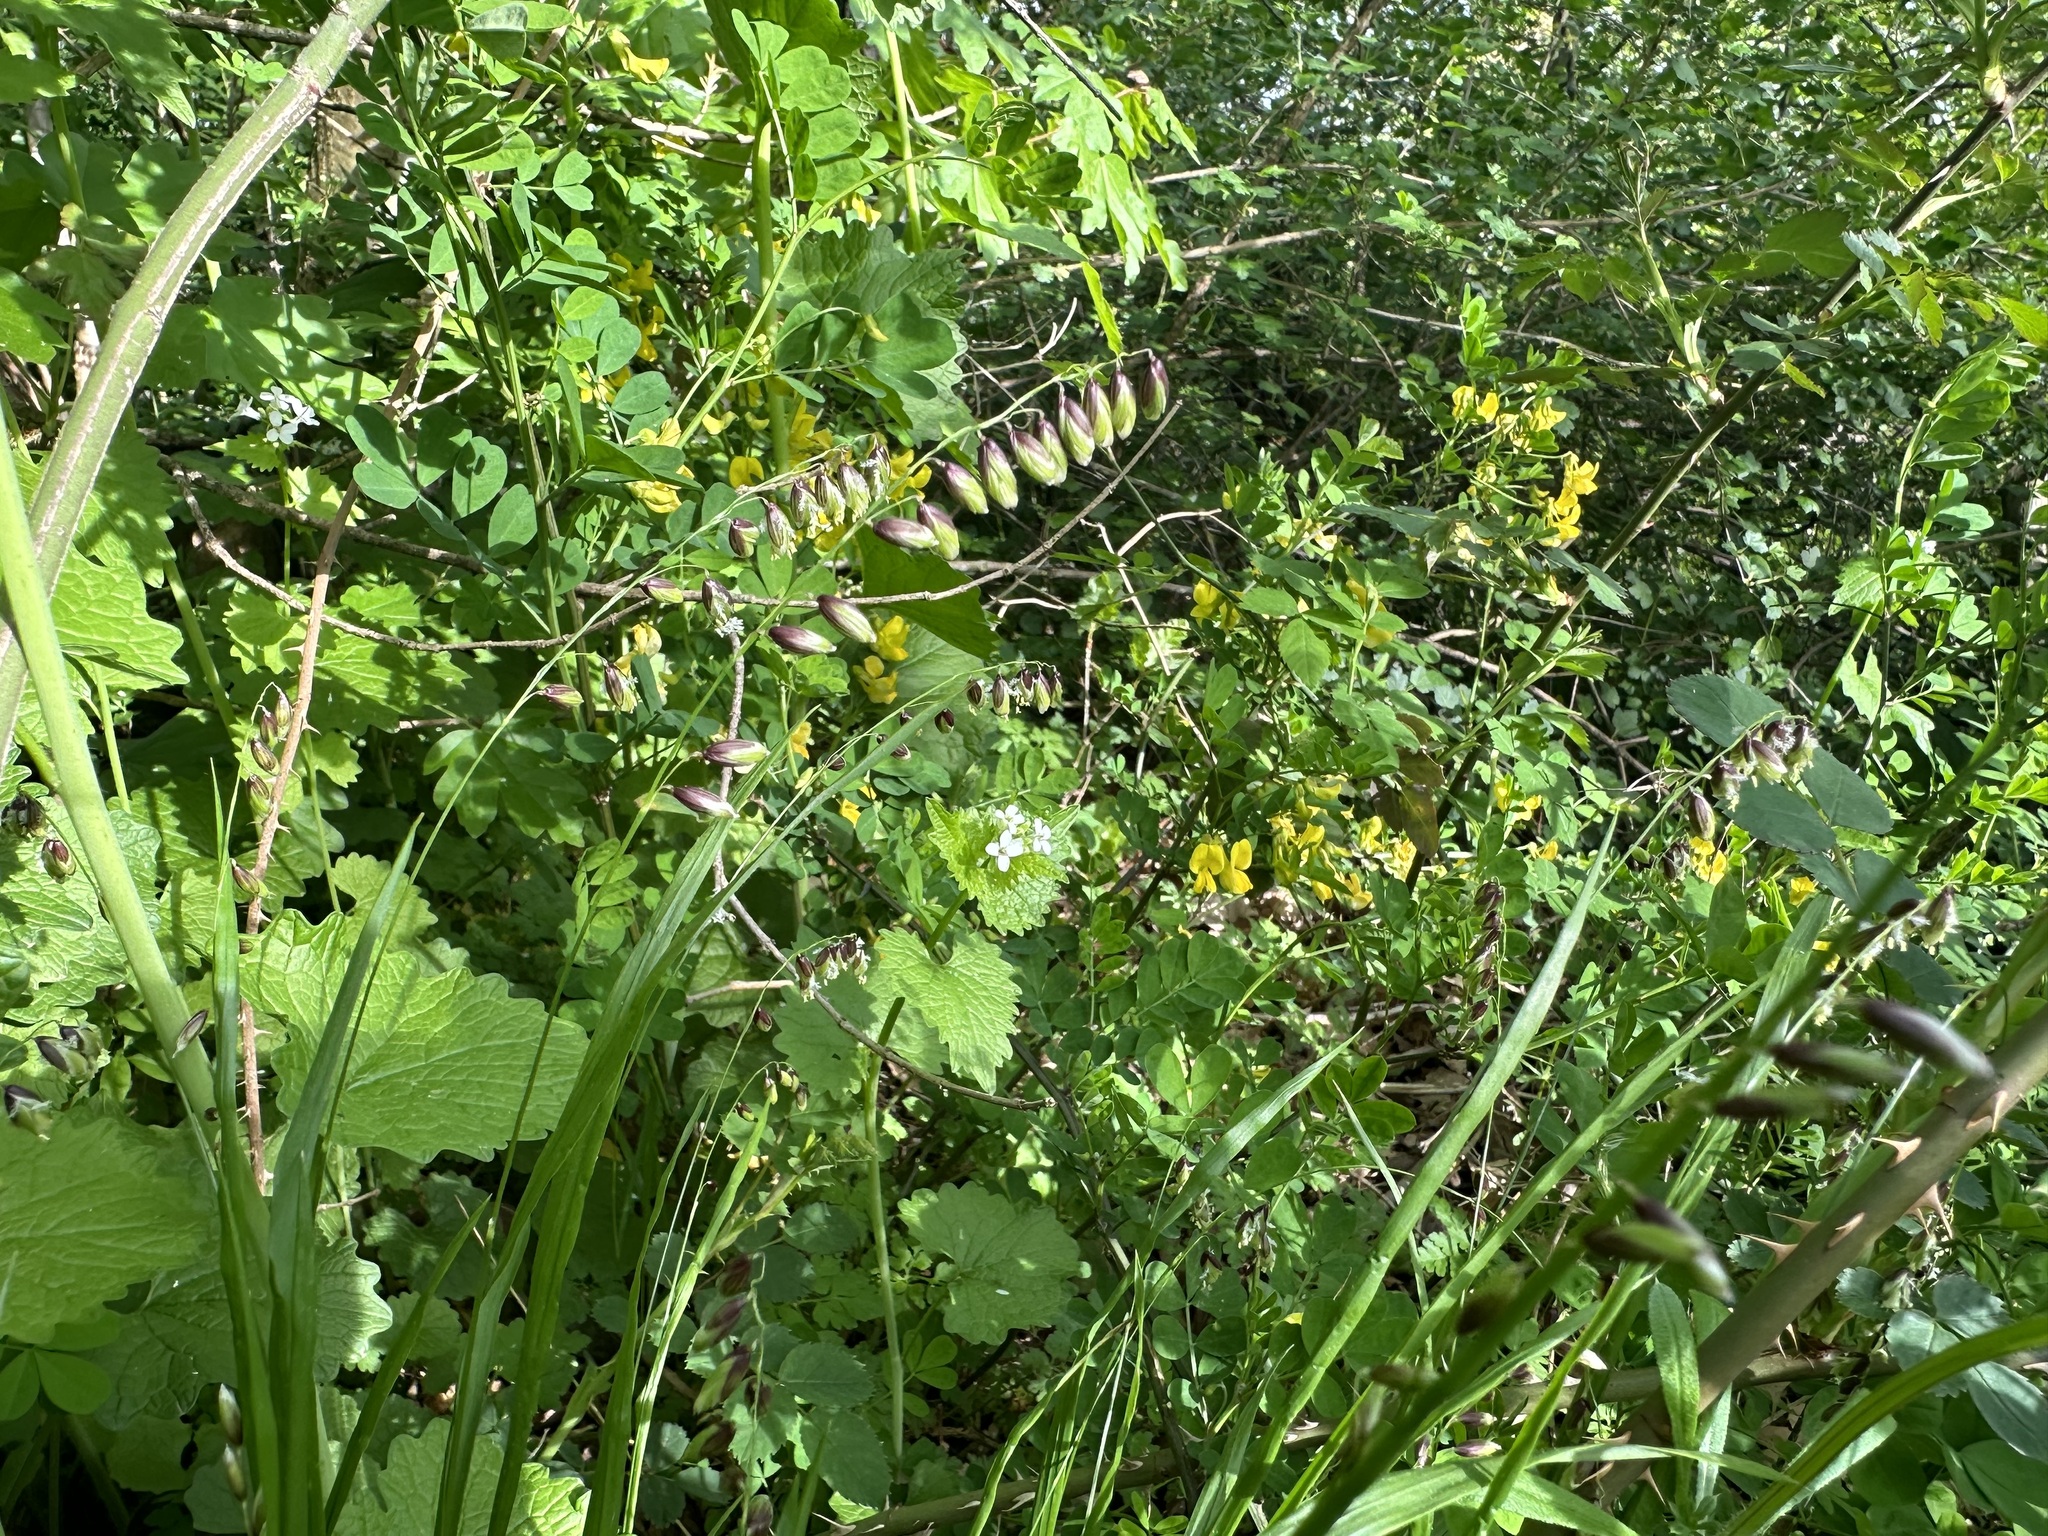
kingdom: Plantae
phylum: Tracheophyta
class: Liliopsida
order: Poales
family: Poaceae
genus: Melica
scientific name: Melica nutans
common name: Mountain melick
